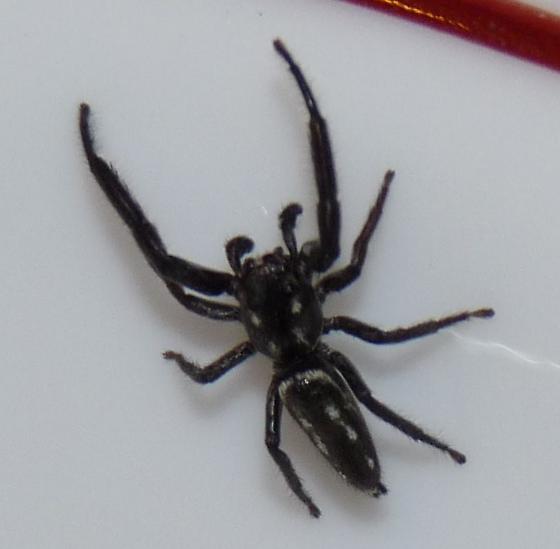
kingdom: Animalia
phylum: Arthropoda
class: Arachnida
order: Araneae
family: Salticidae
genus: Marpissa
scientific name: Marpissa bina
